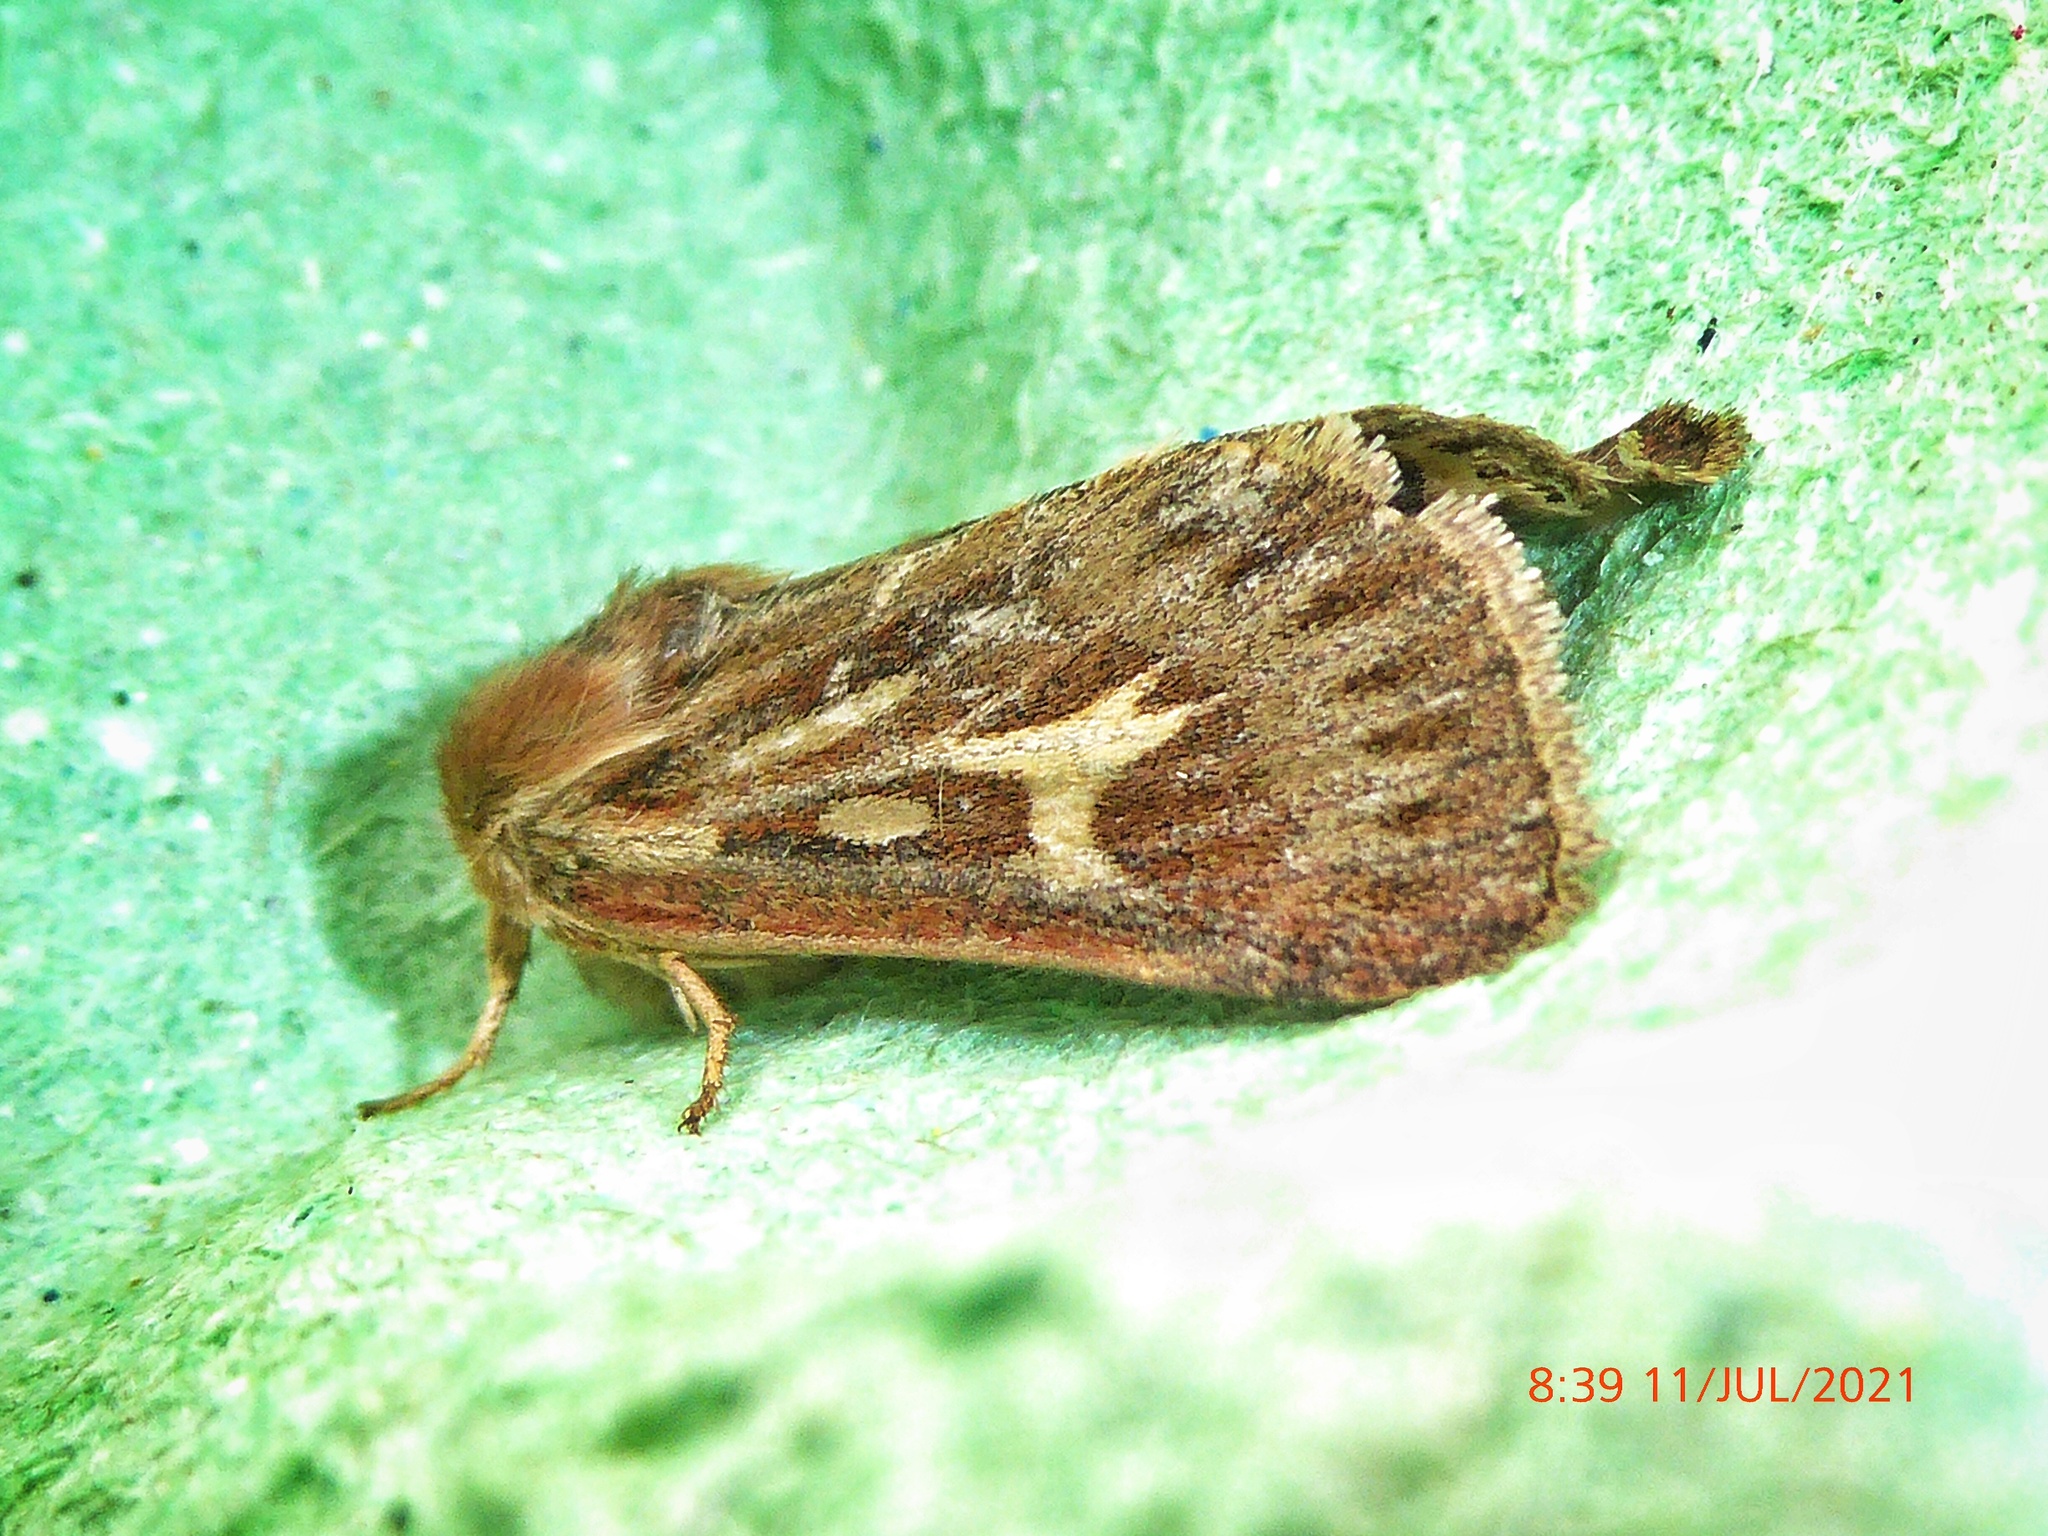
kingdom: Animalia
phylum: Arthropoda
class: Insecta
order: Lepidoptera
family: Noctuidae
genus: Cerapteryx
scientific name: Cerapteryx graminis
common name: Antler moth
